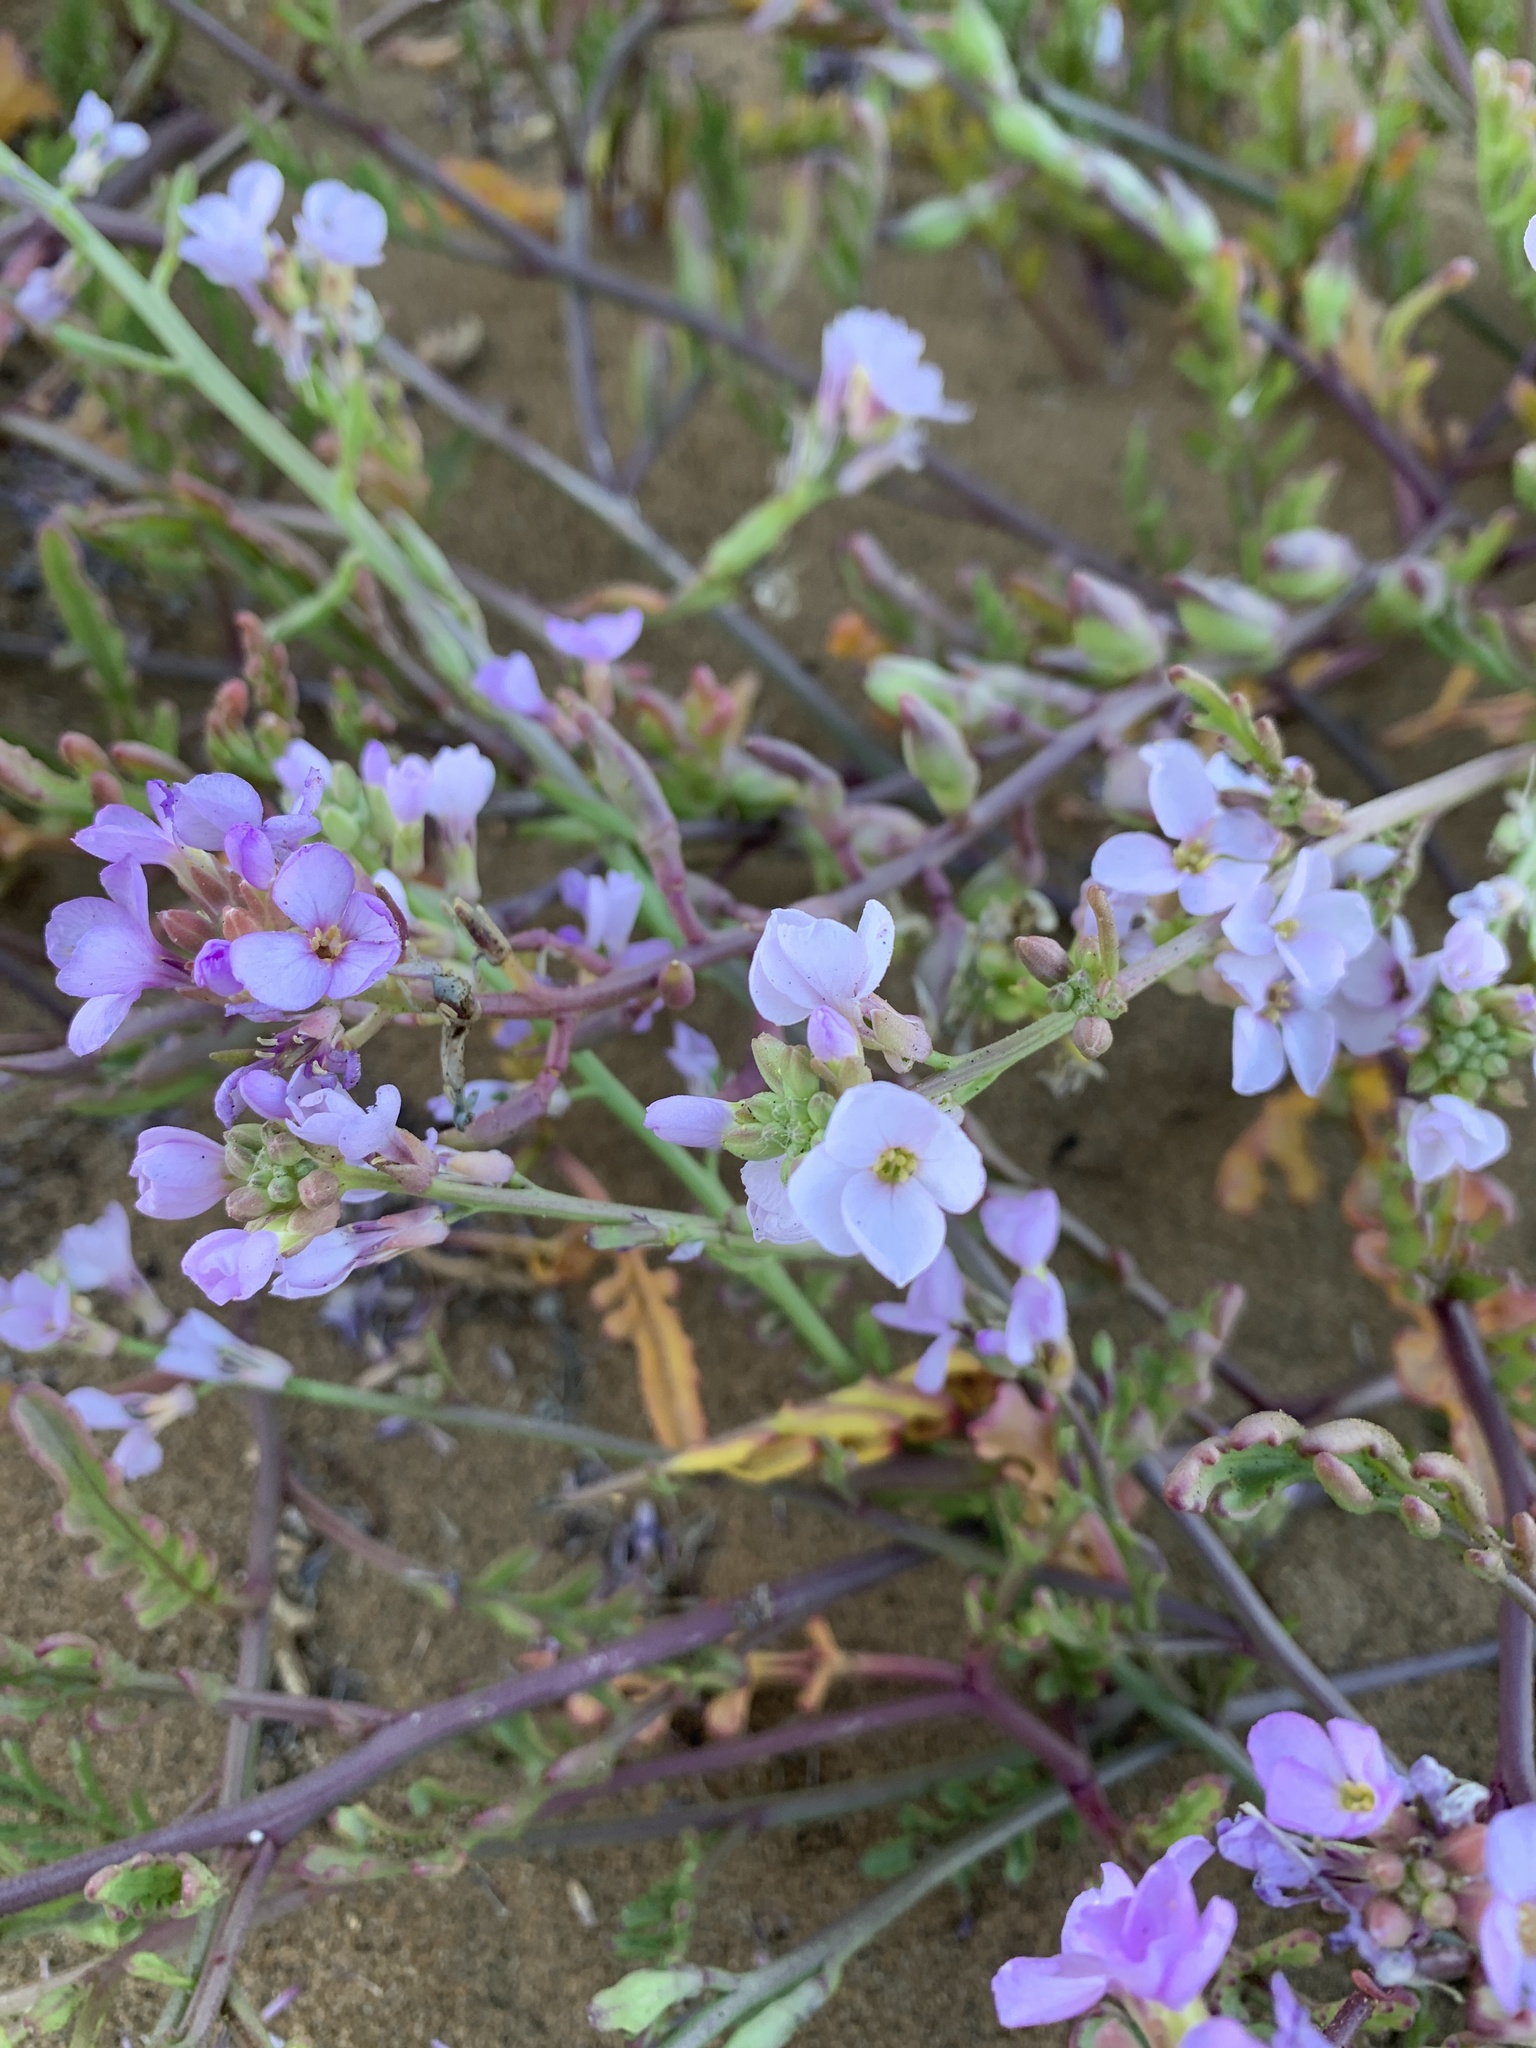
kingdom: Plantae
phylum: Tracheophyta
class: Magnoliopsida
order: Brassicales
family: Brassicaceae
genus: Cakile
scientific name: Cakile maritima
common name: Sea rocket
